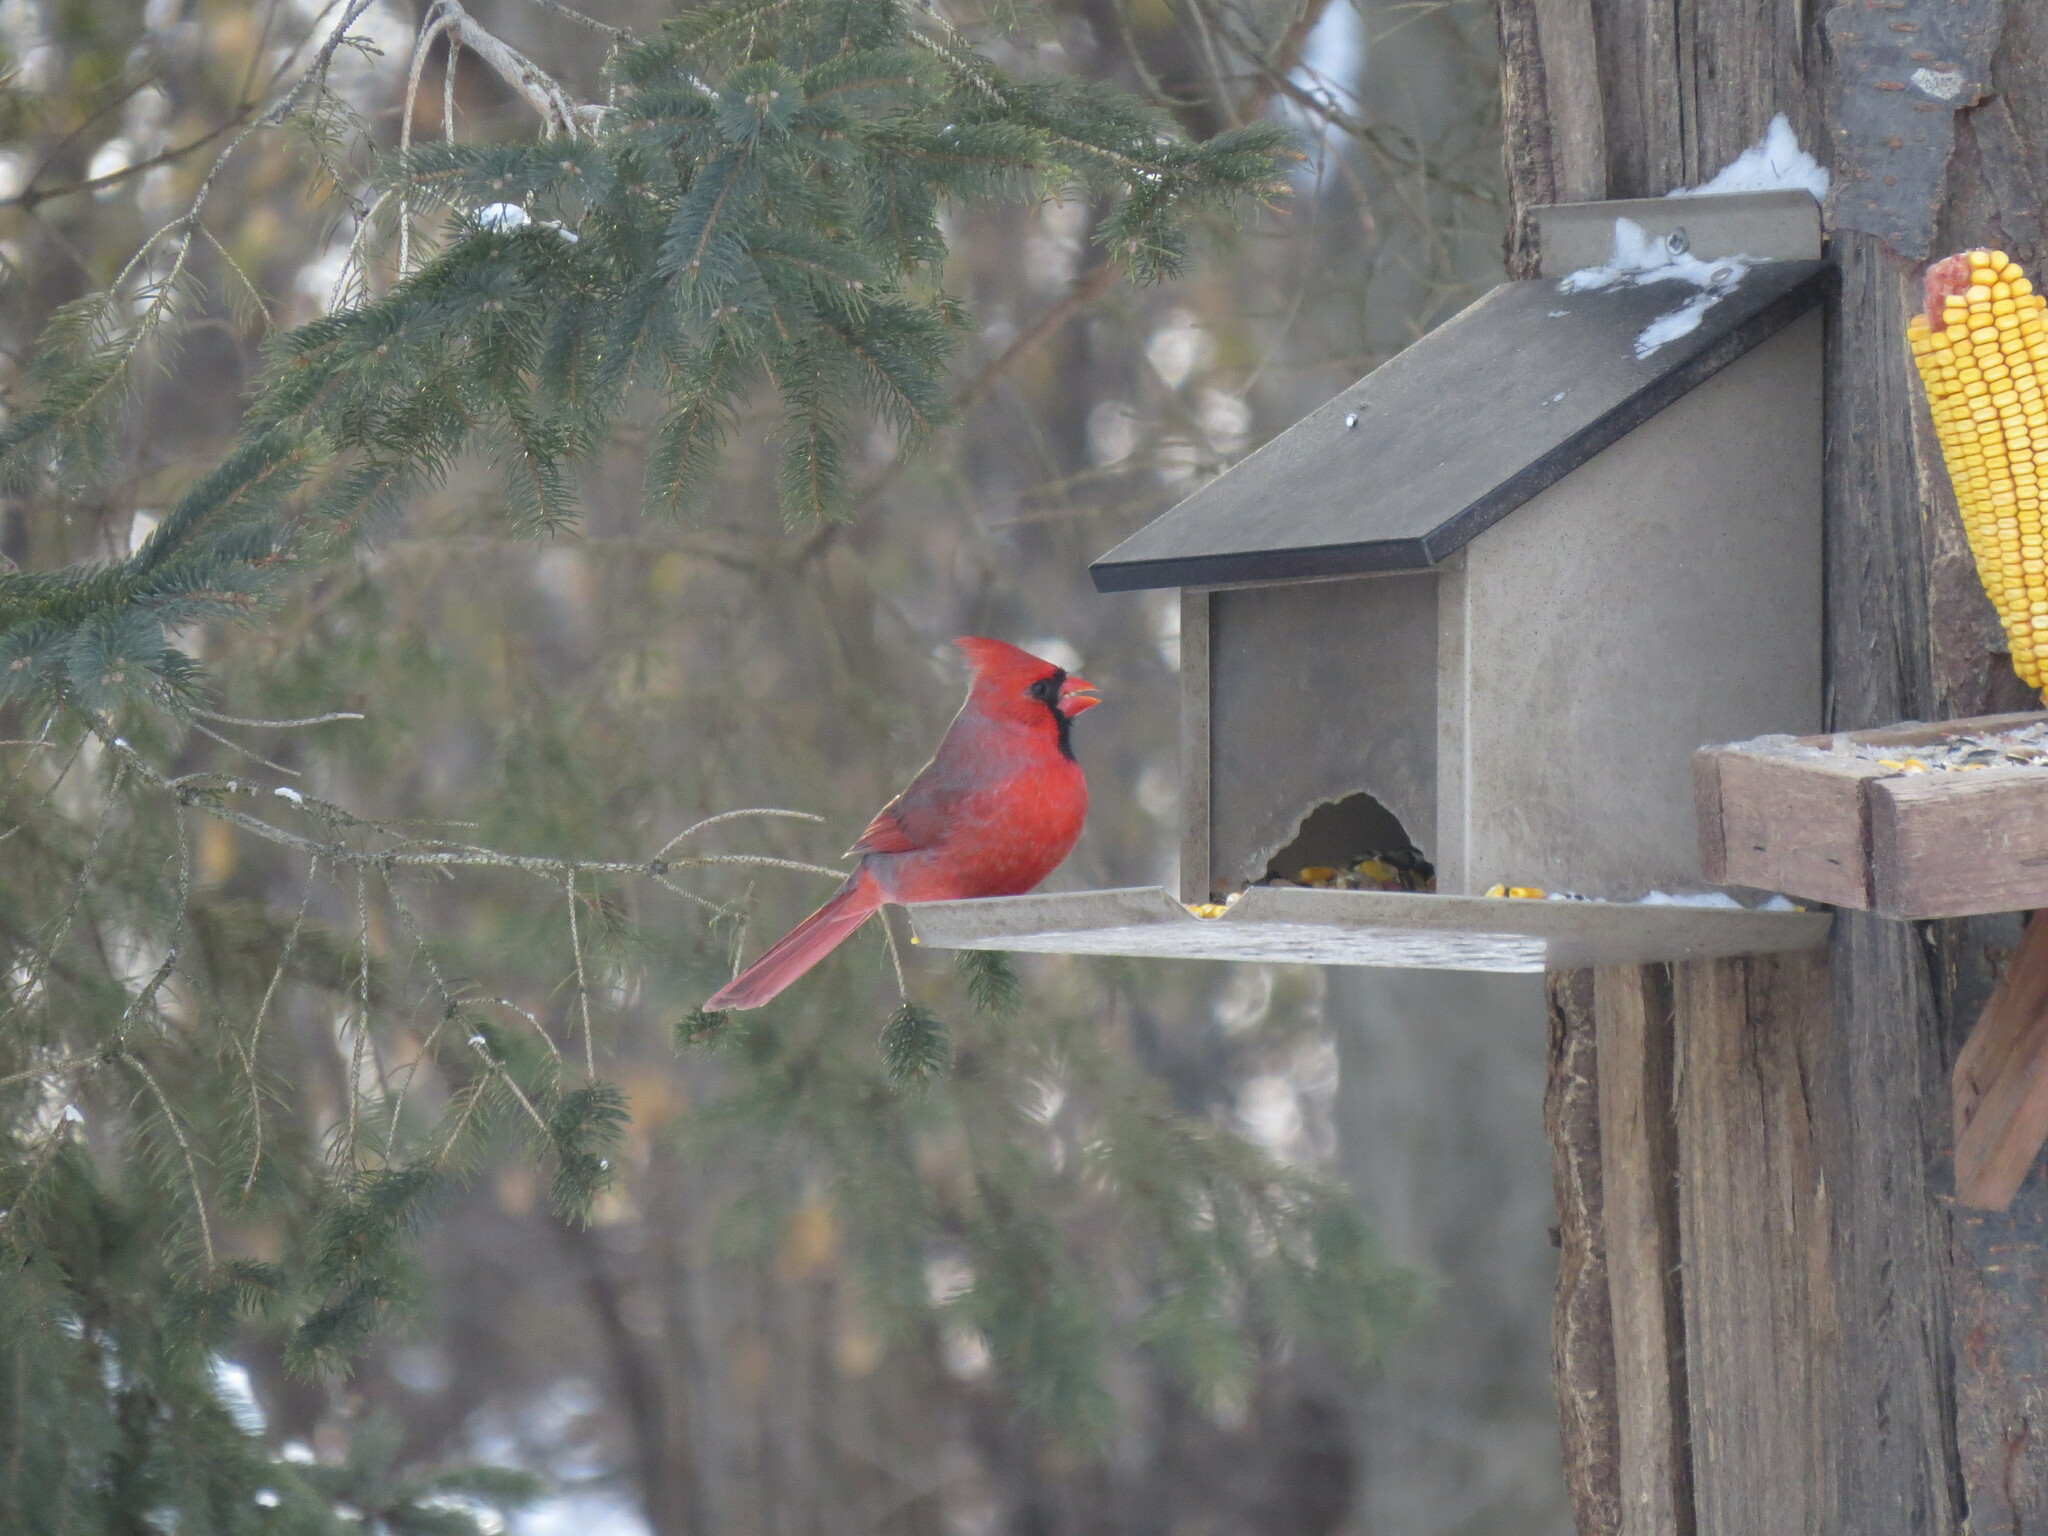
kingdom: Animalia
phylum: Chordata
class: Aves
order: Passeriformes
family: Cardinalidae
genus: Cardinalis
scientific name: Cardinalis cardinalis
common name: Northern cardinal
